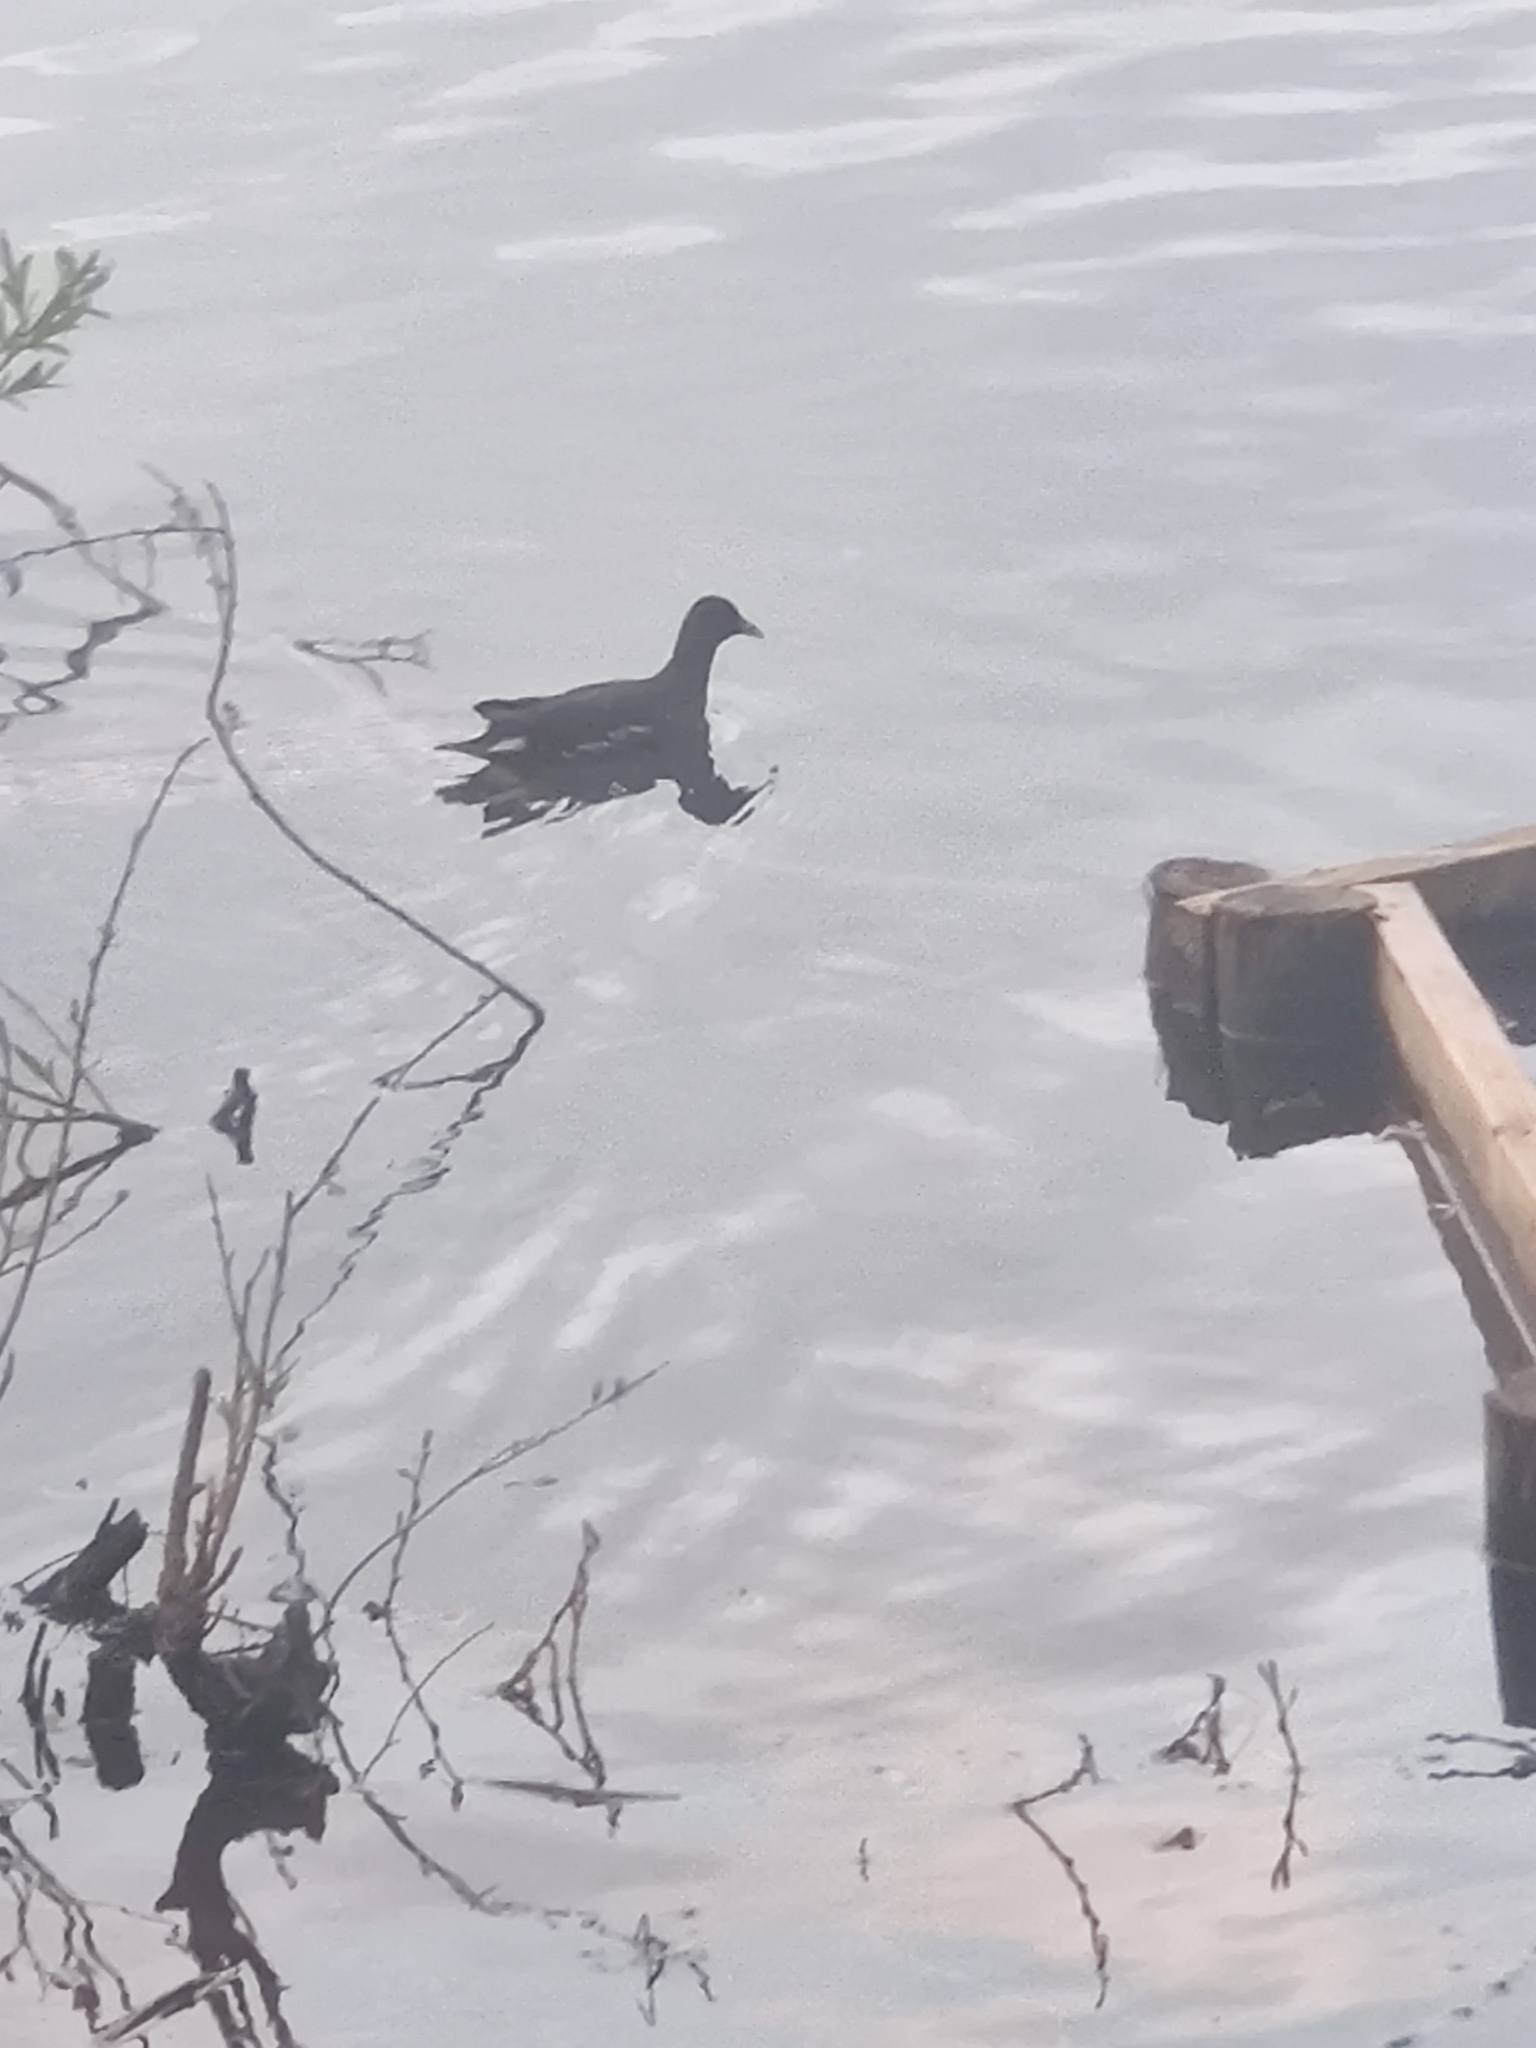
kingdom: Animalia
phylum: Chordata
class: Aves
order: Gruiformes
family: Rallidae
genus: Gallinula
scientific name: Gallinula chloropus
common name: Common moorhen
